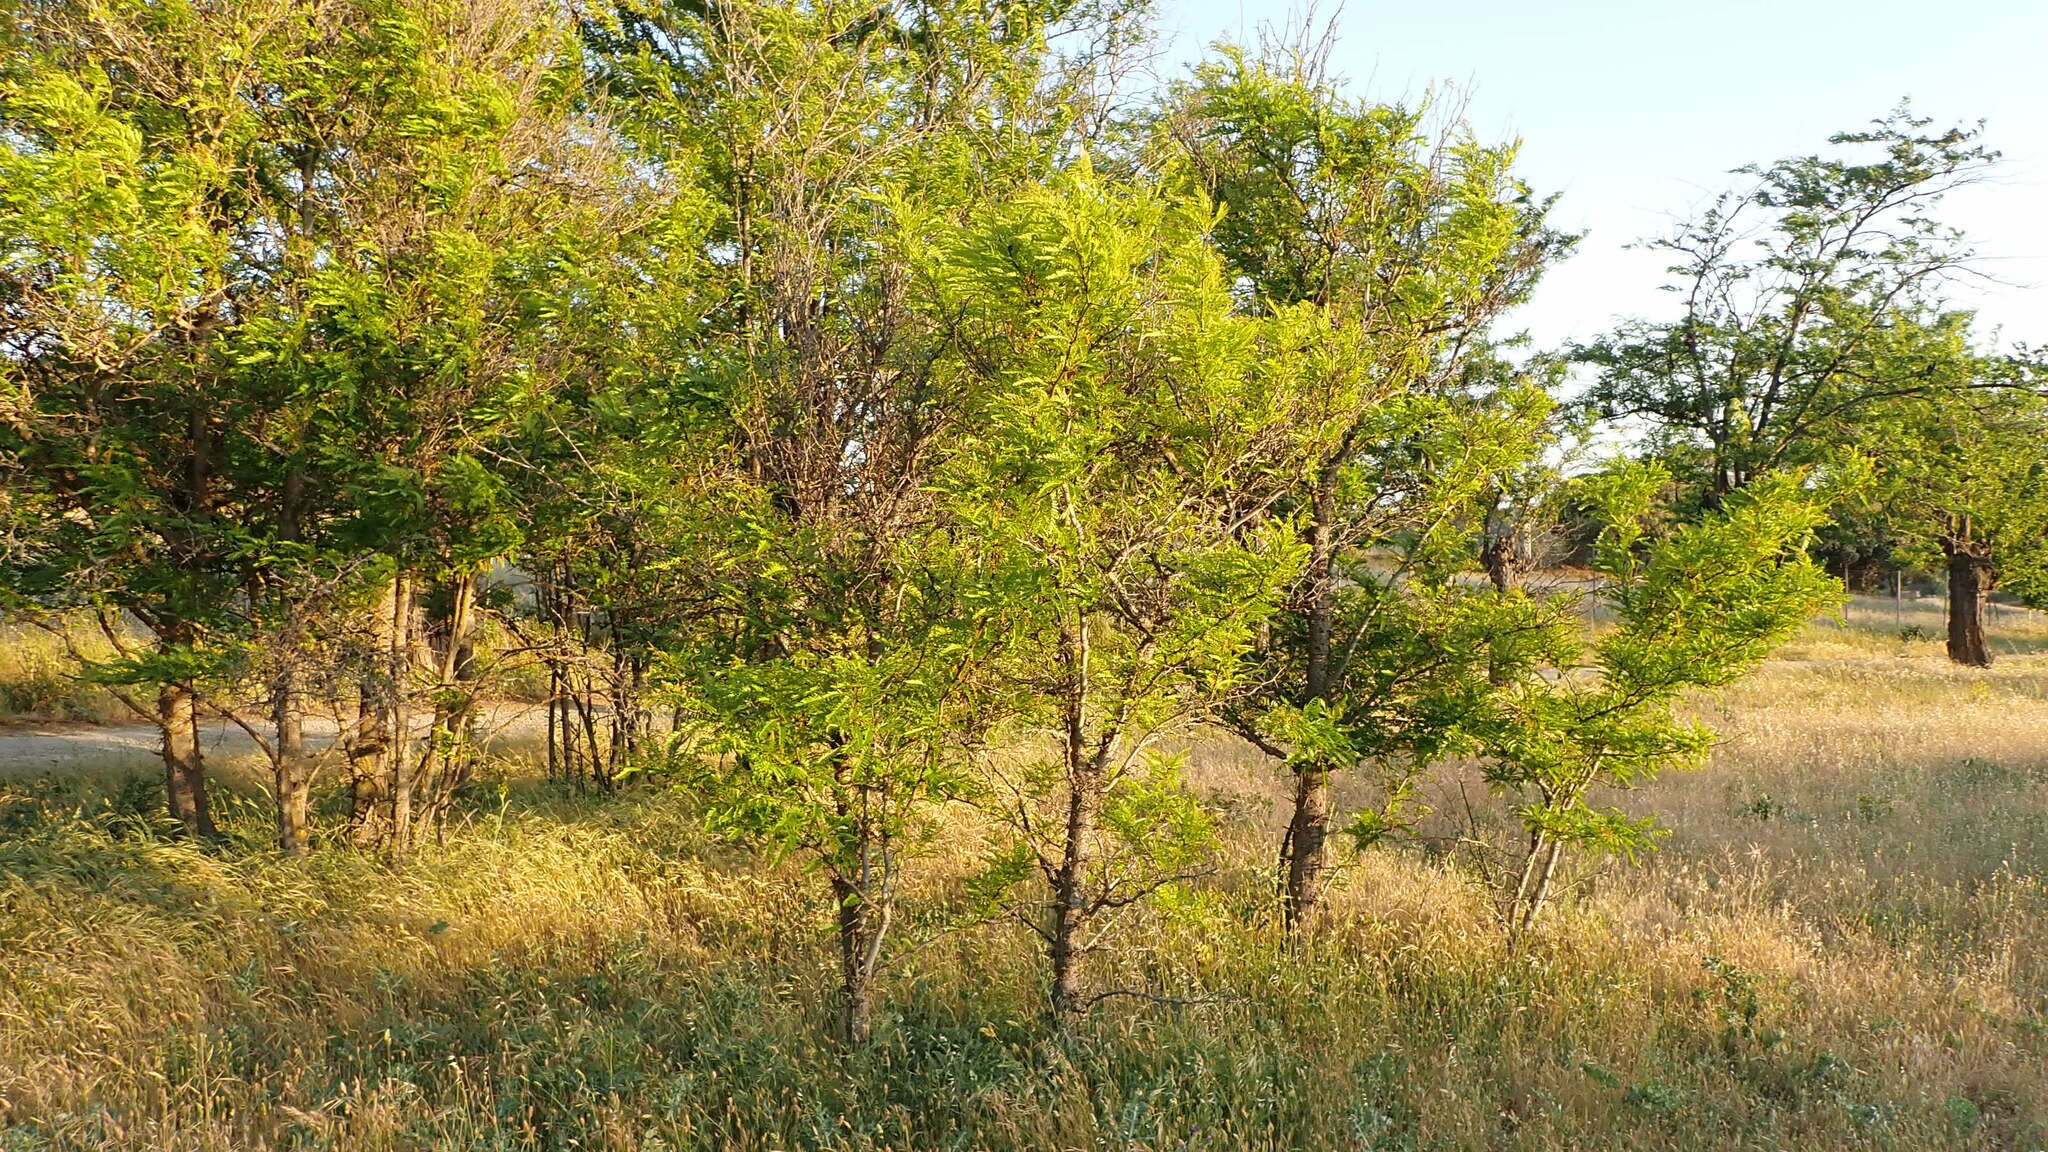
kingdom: Plantae
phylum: Tracheophyta
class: Magnoliopsida
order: Fabales
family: Fabaceae
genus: Gleditsia
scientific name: Gleditsia triacanthos
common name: Common honeylocust
